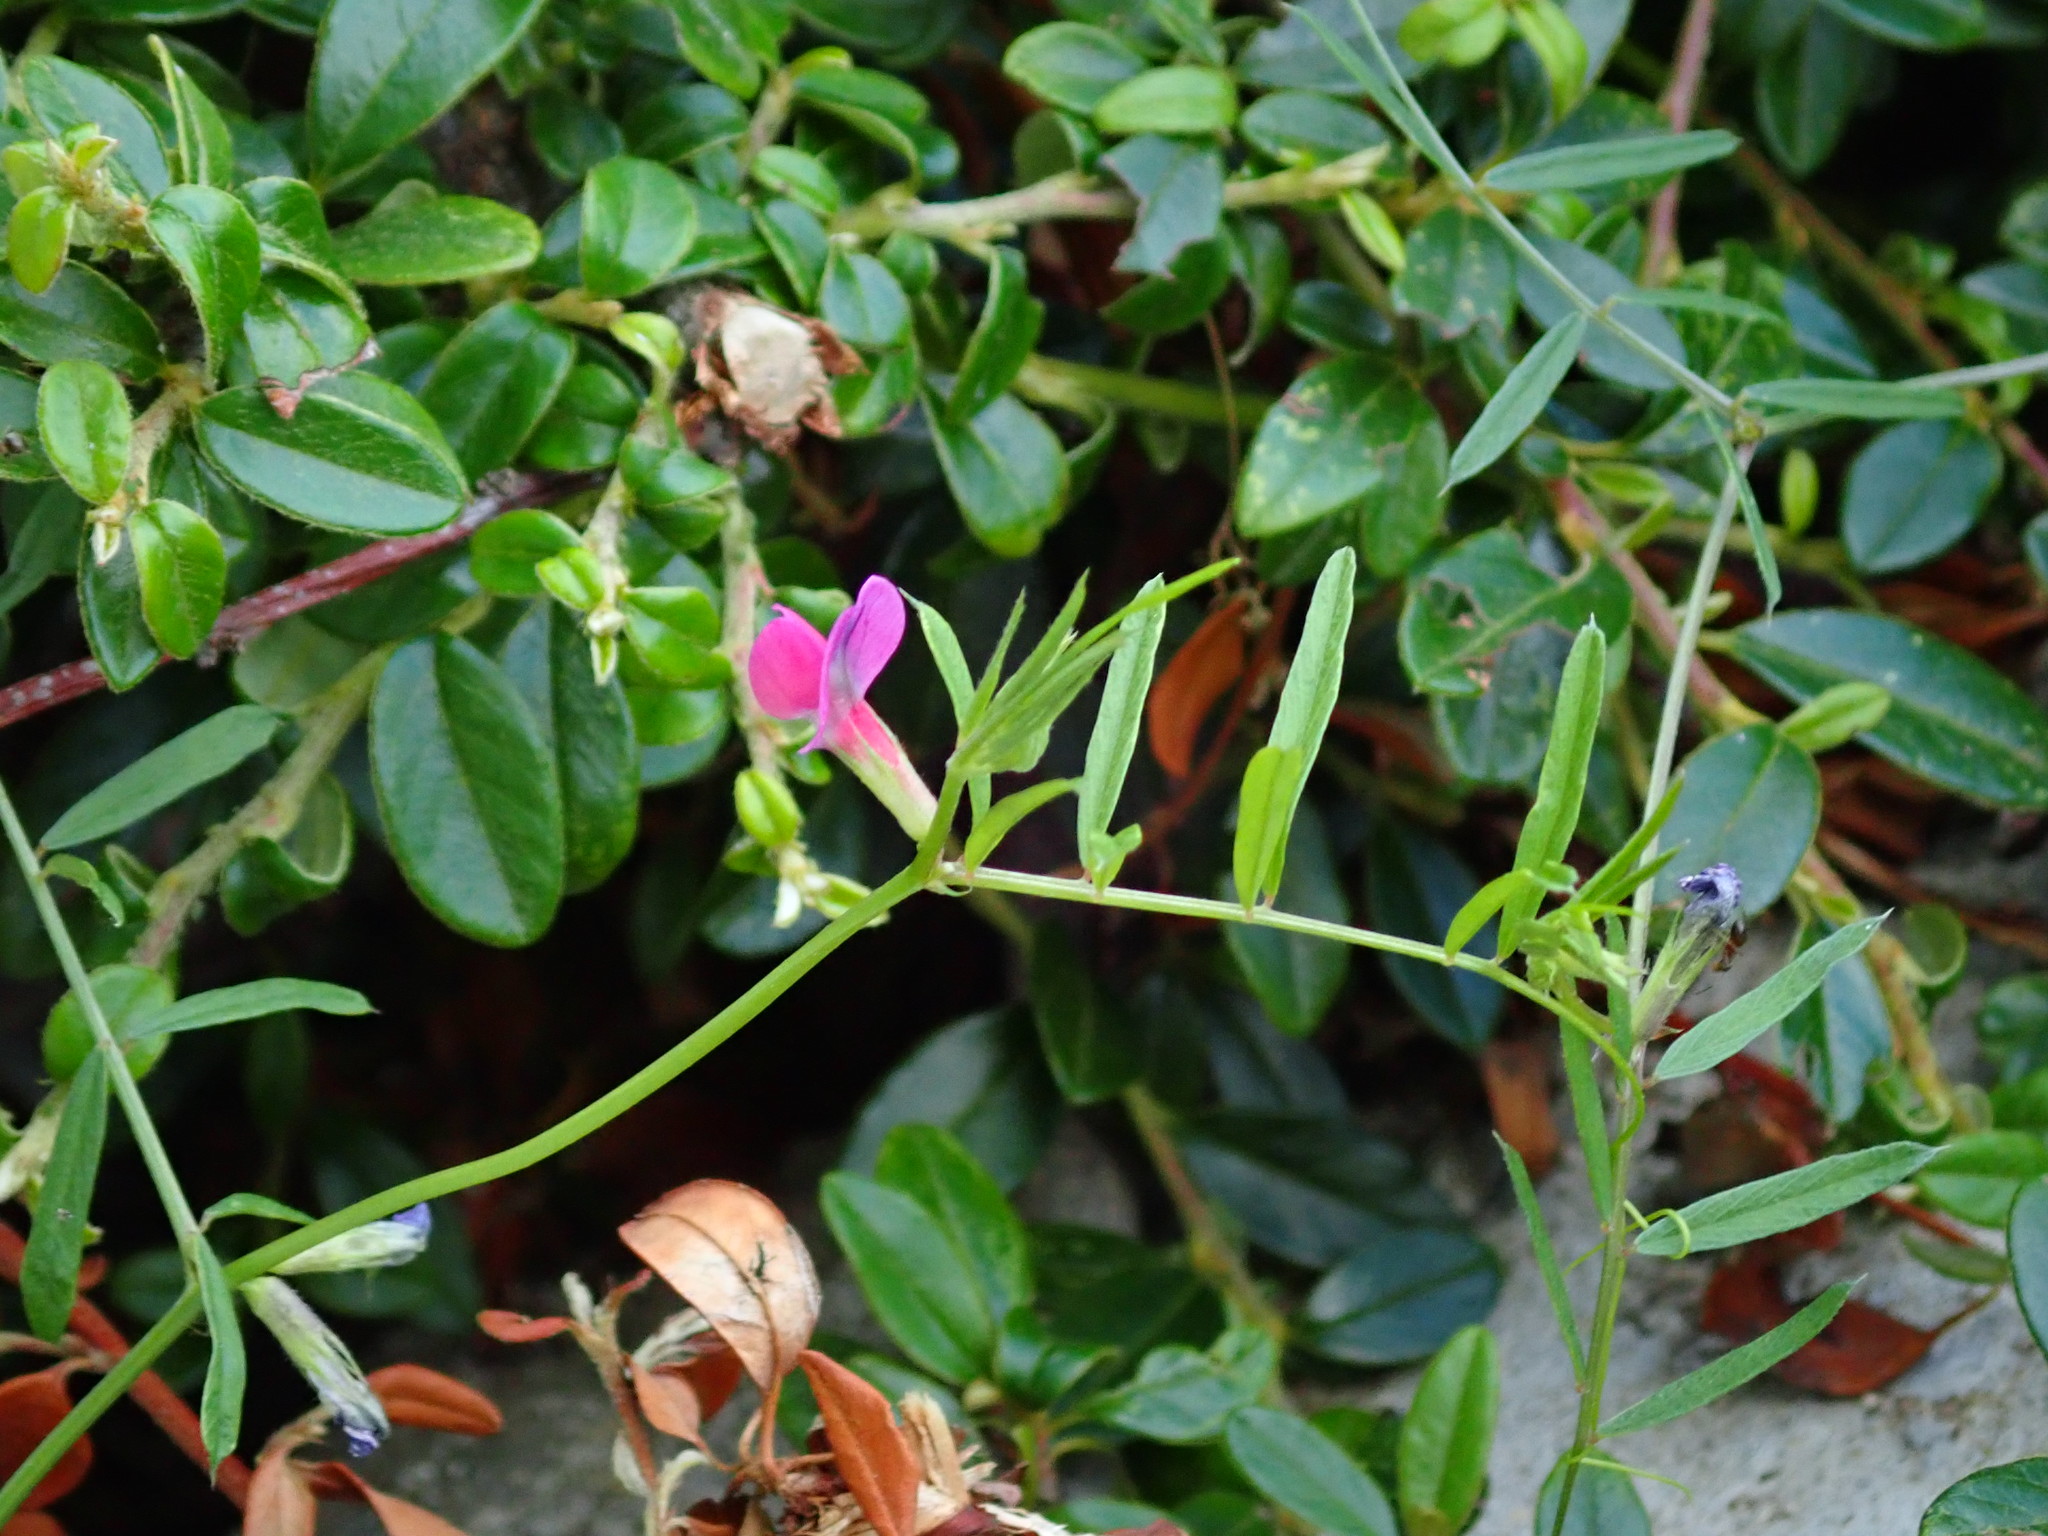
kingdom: Plantae
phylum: Tracheophyta
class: Magnoliopsida
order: Fabales
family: Fabaceae
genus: Vicia
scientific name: Vicia sativa
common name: Garden vetch
